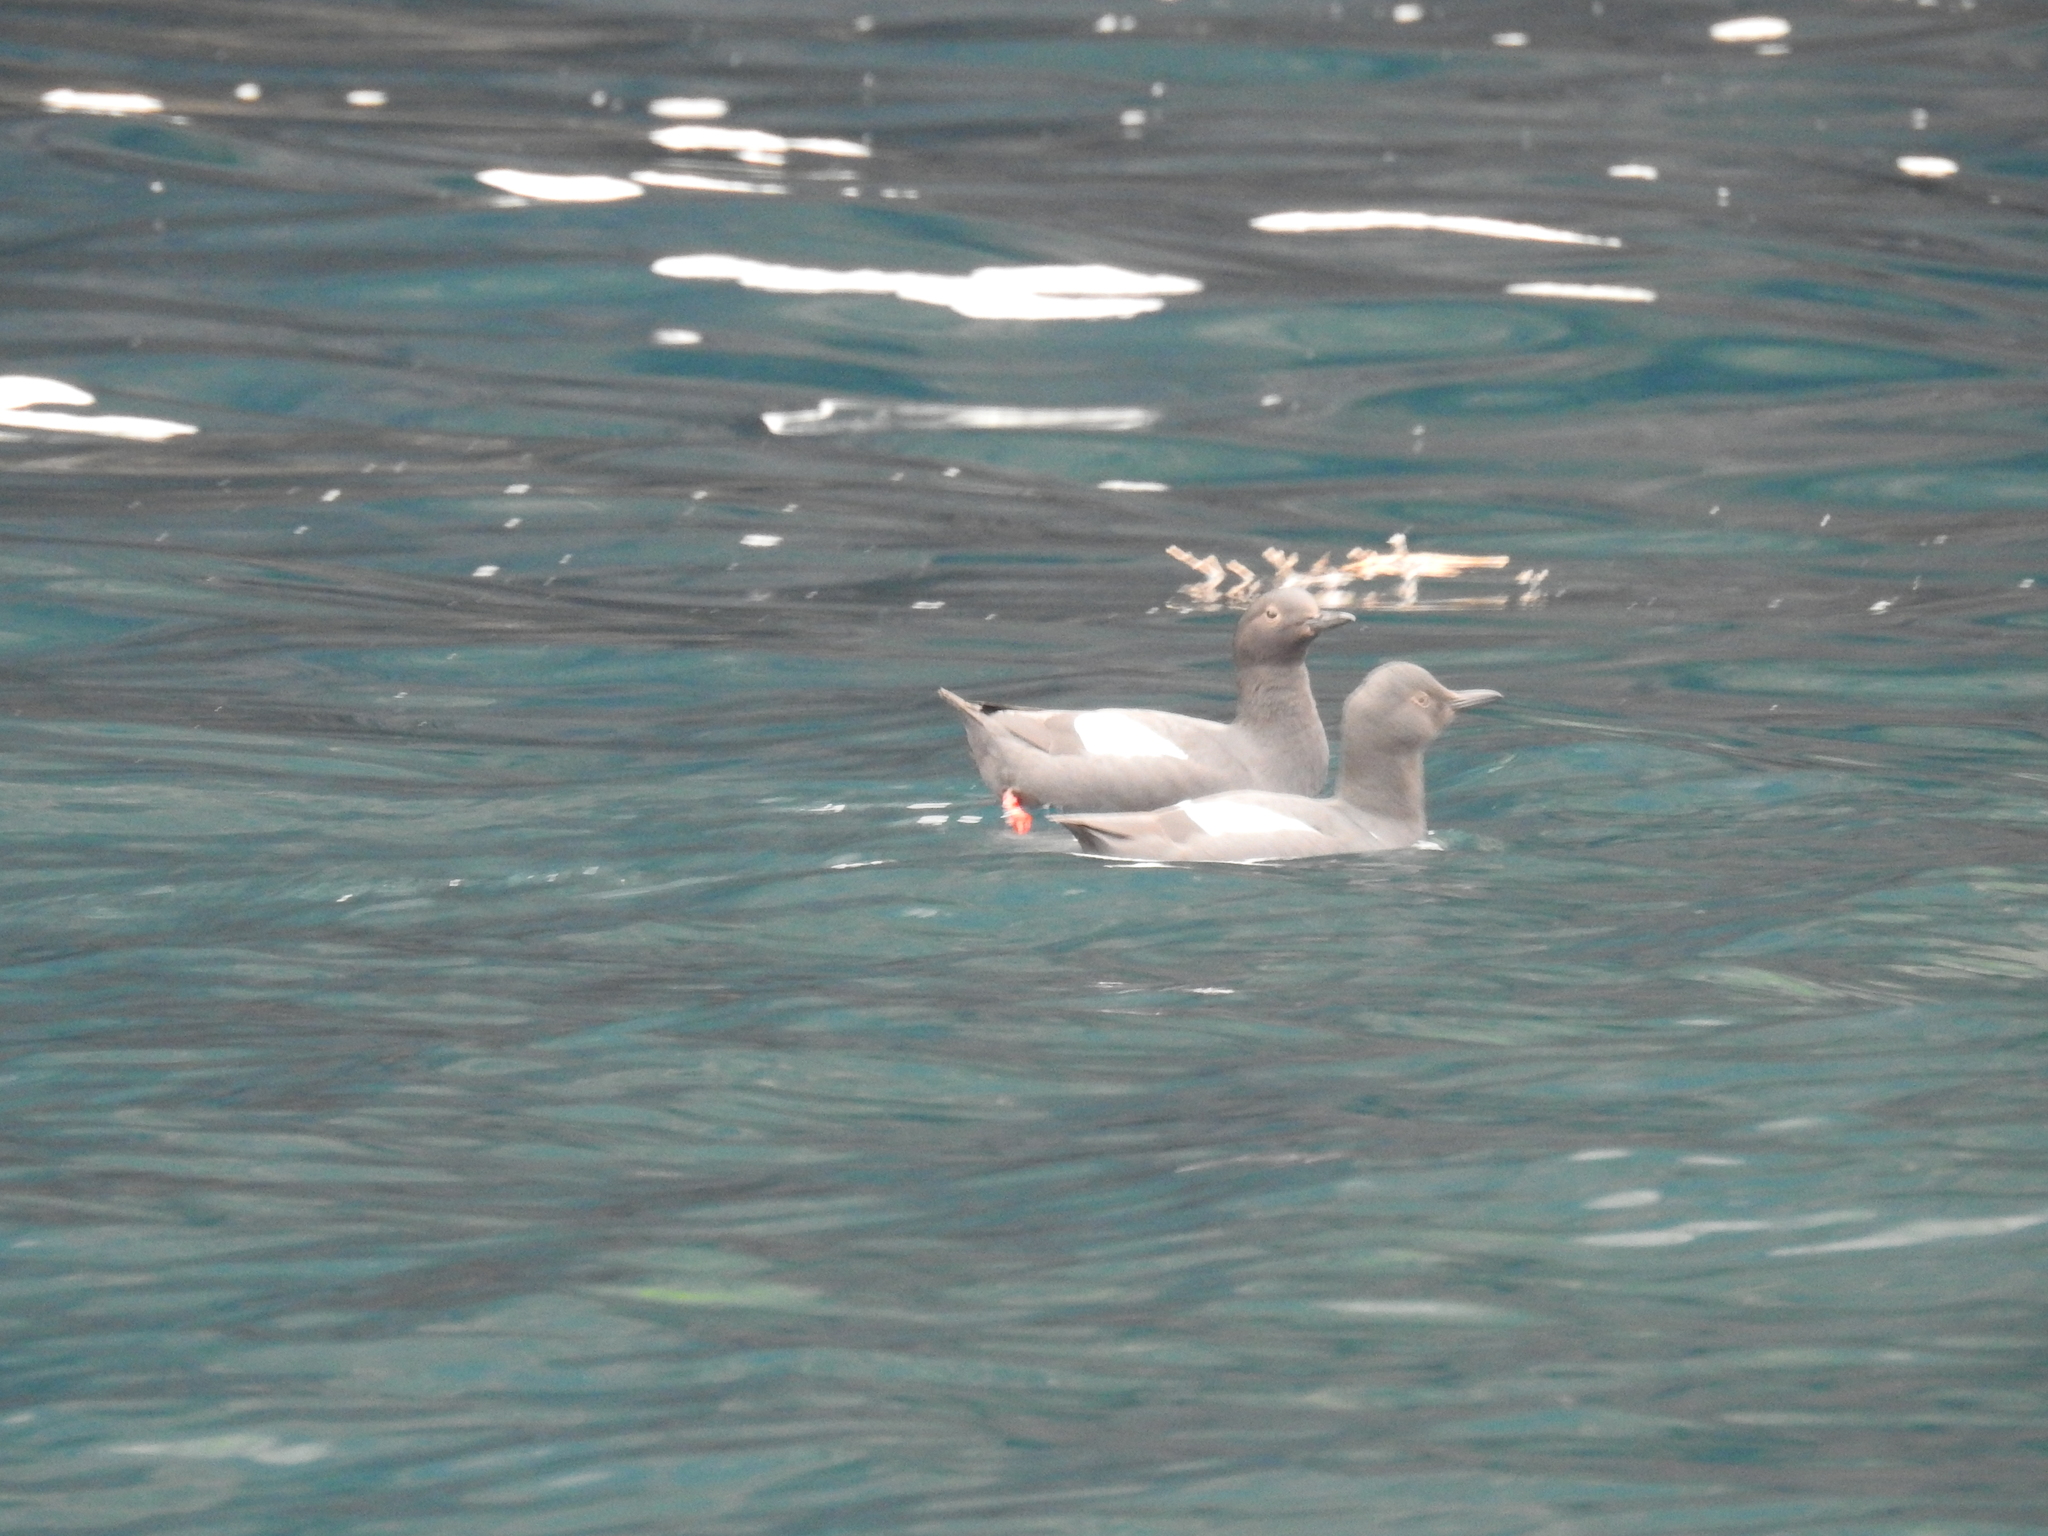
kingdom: Animalia
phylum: Chordata
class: Aves
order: Charadriiformes
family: Alcidae
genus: Cepphus
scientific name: Cepphus columba
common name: Pigeon guillemot
